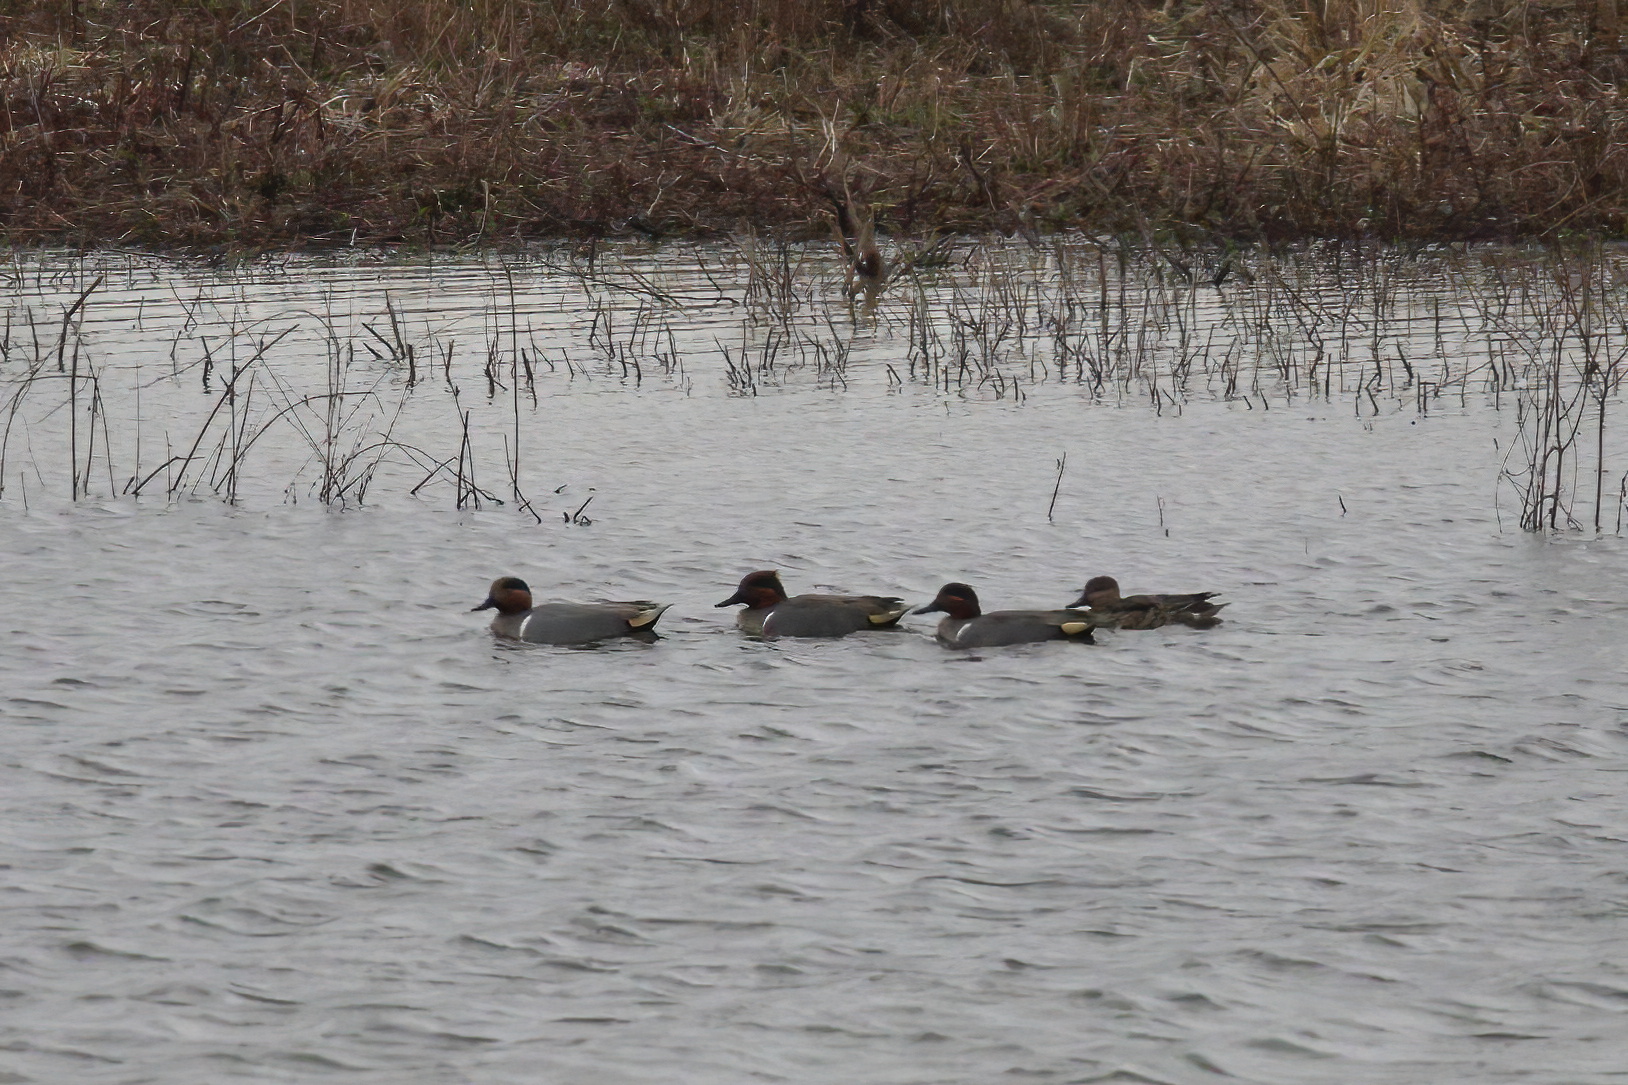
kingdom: Animalia
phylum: Chordata
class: Aves
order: Anseriformes
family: Anatidae
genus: Anas
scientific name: Anas crecca
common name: Eurasian teal
